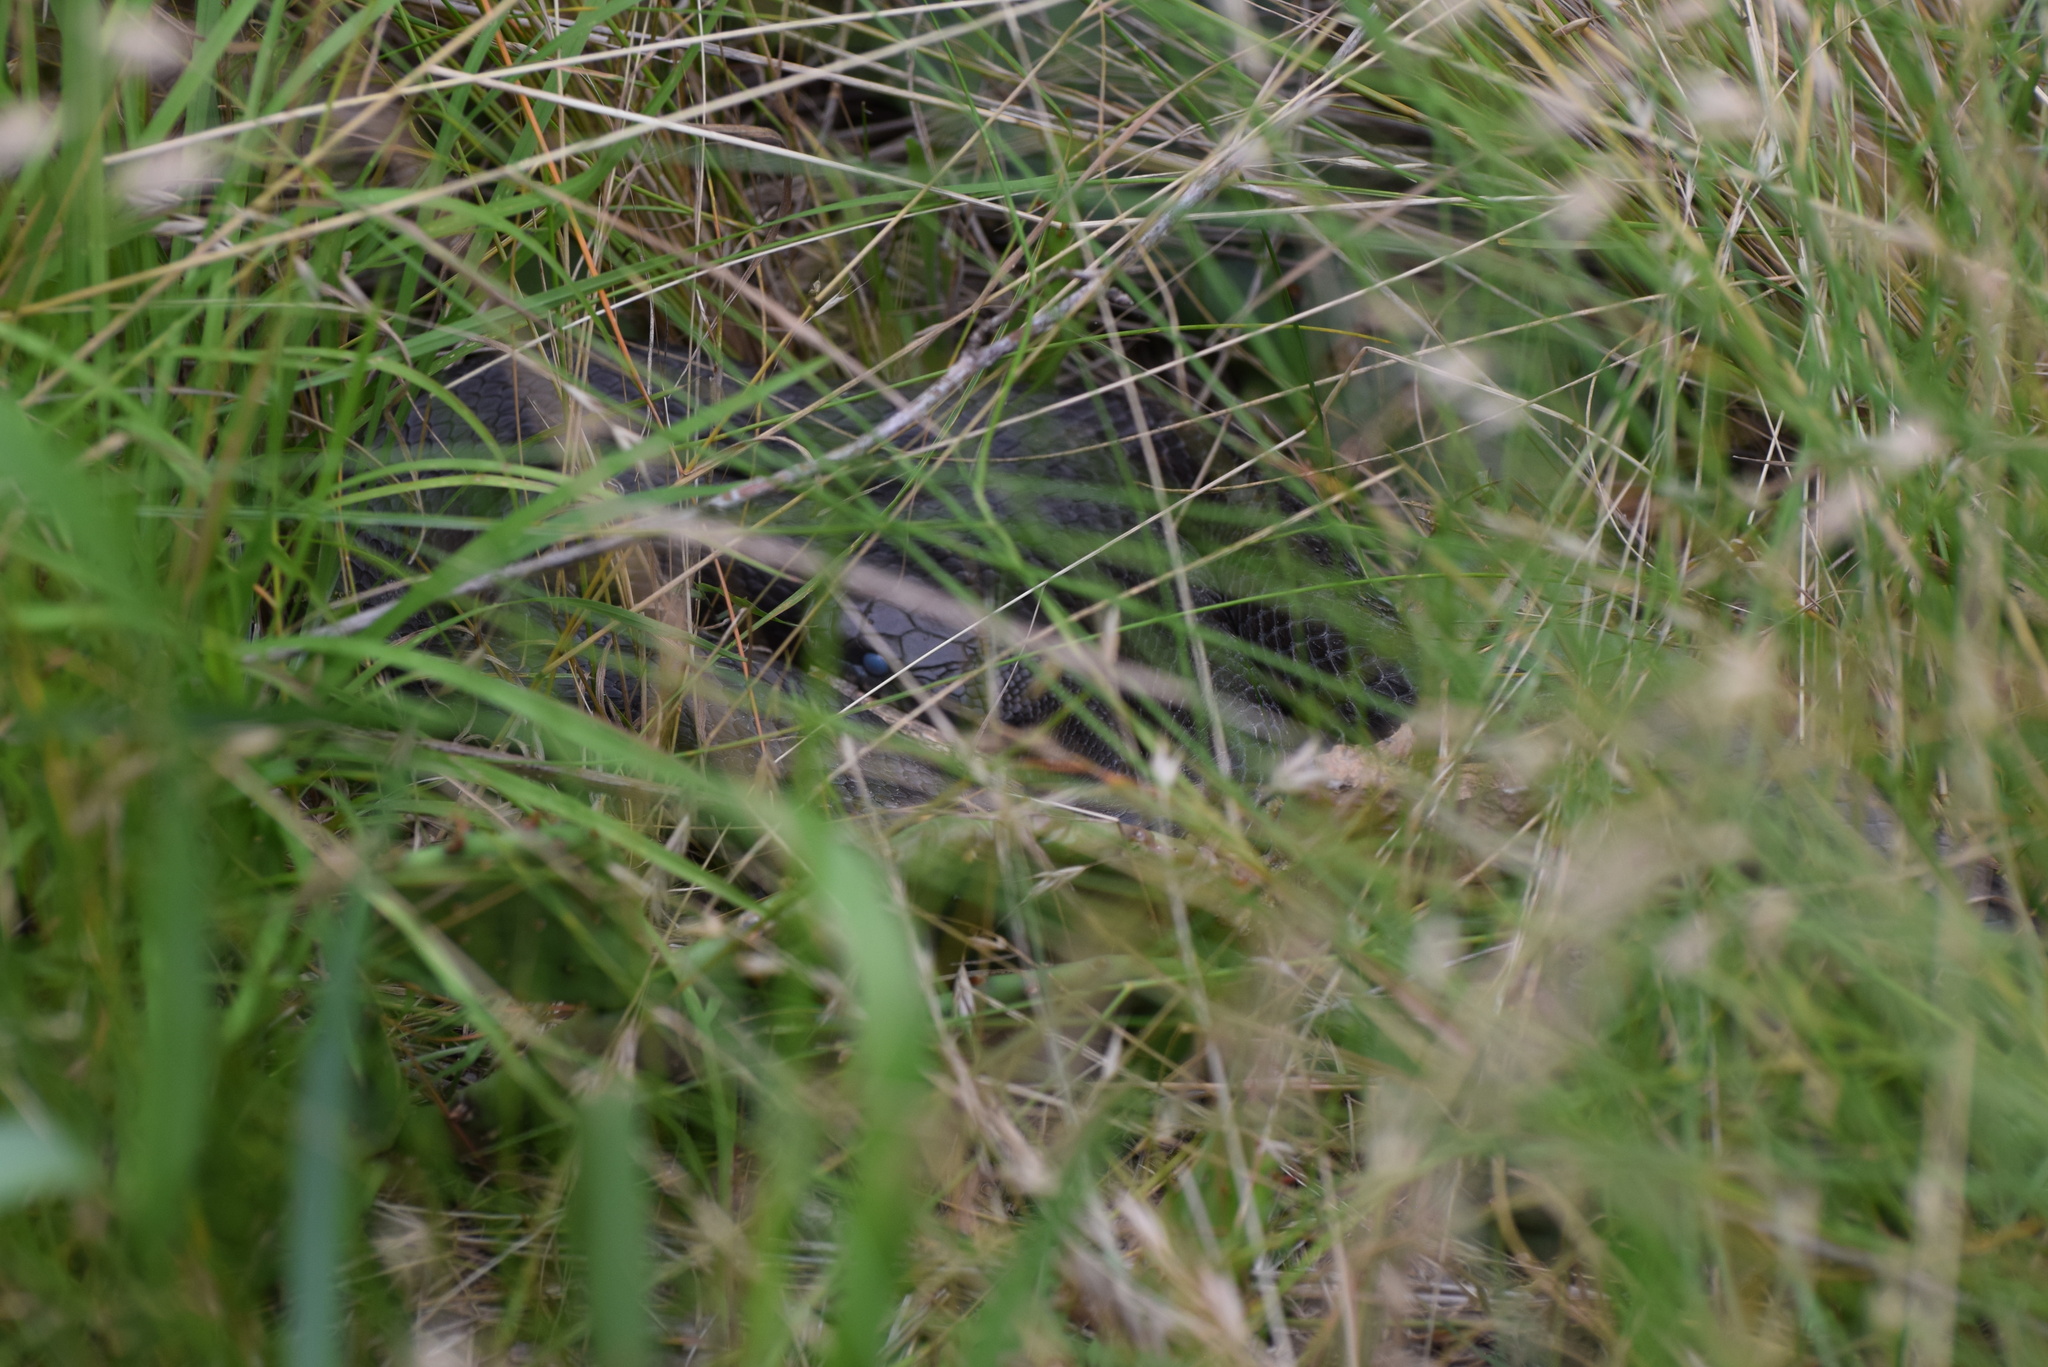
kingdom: Animalia
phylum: Chordata
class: Squamata
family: Colubridae
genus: Pantherophis
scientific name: Pantherophis
